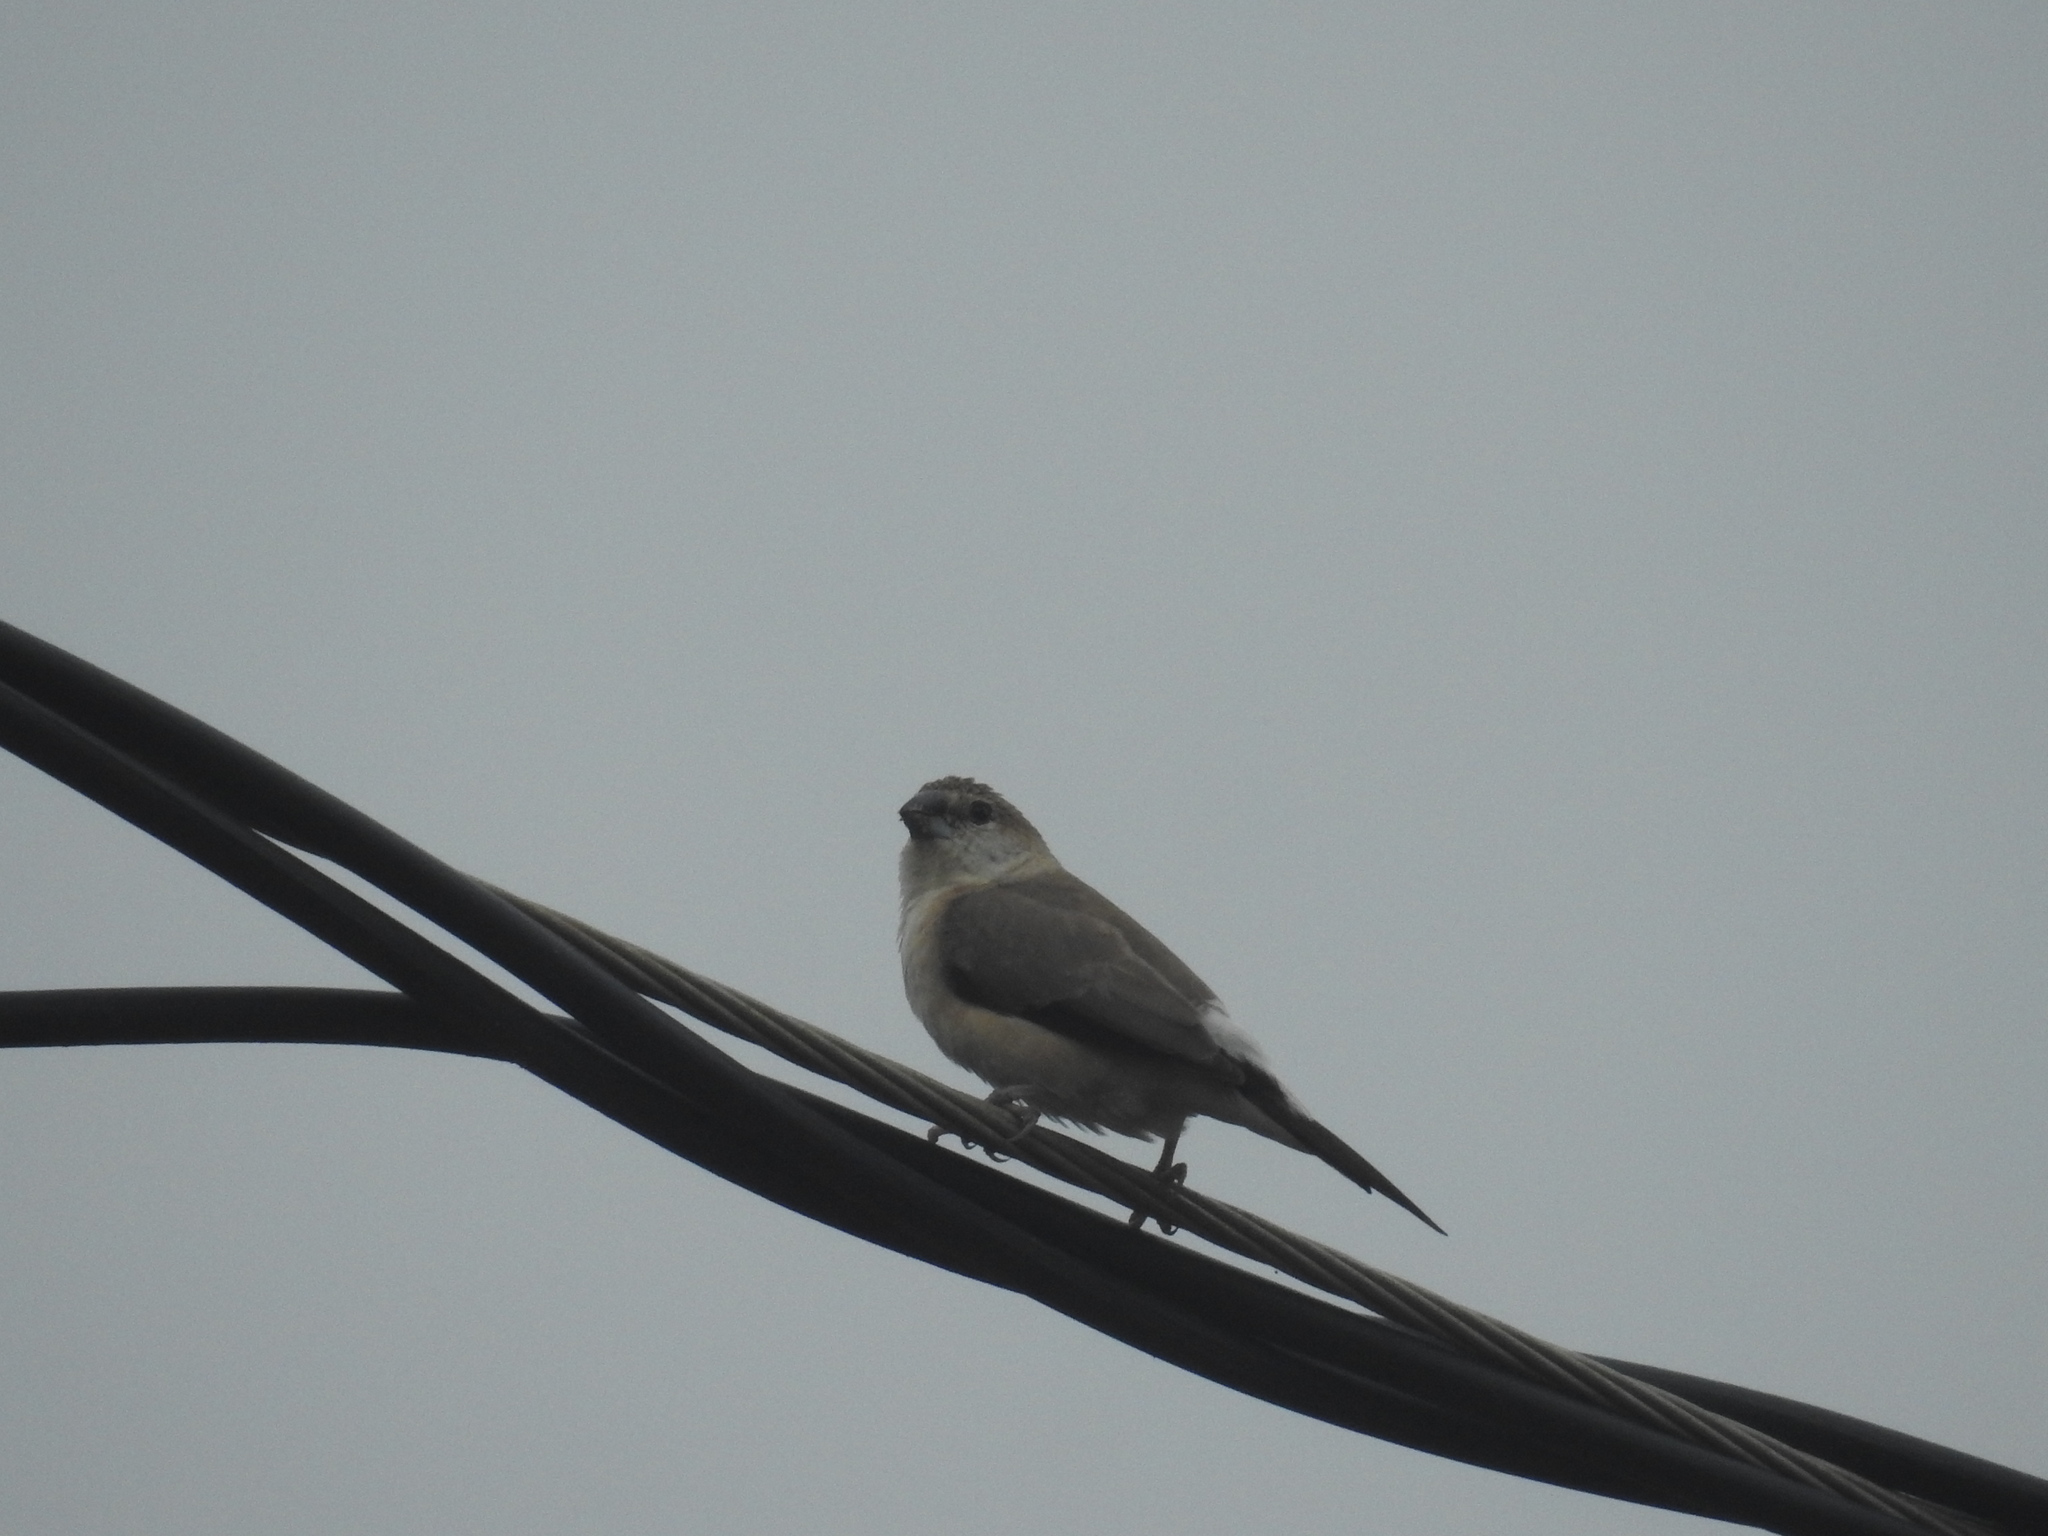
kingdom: Animalia
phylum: Chordata
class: Aves
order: Passeriformes
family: Estrildidae
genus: Euodice
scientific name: Euodice malabarica
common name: Indian silverbill
